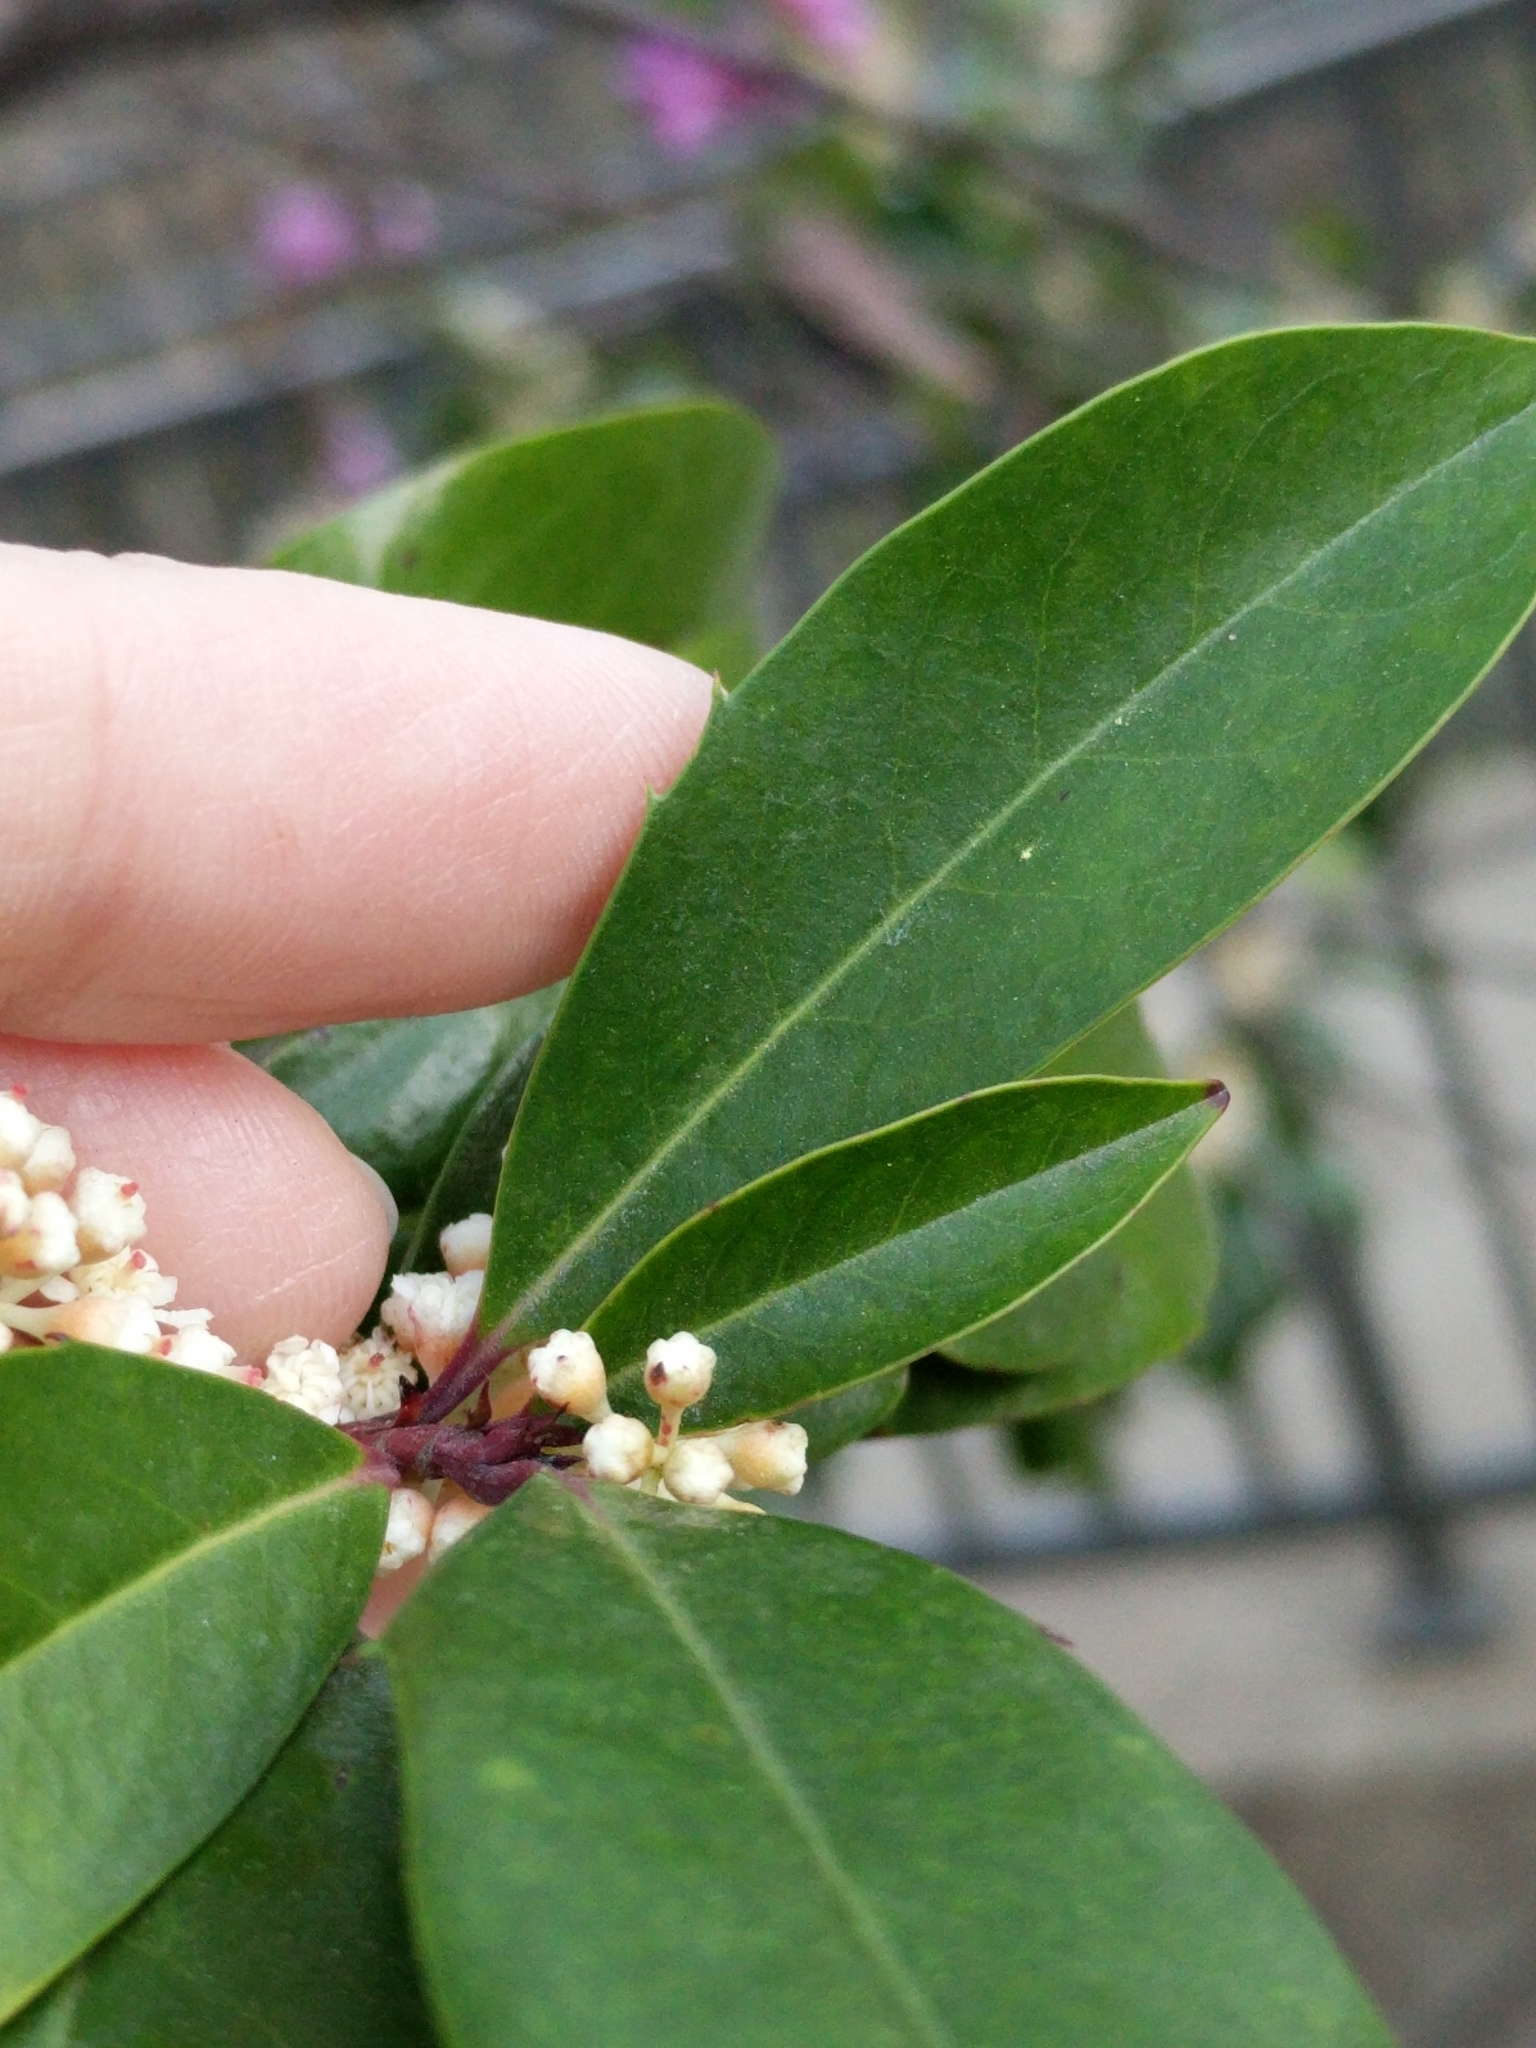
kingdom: Plantae
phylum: Tracheophyta
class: Magnoliopsida
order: Rosales
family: Rosaceae
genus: Prunus
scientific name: Prunus caroliniana
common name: Carolina laurel cherry
